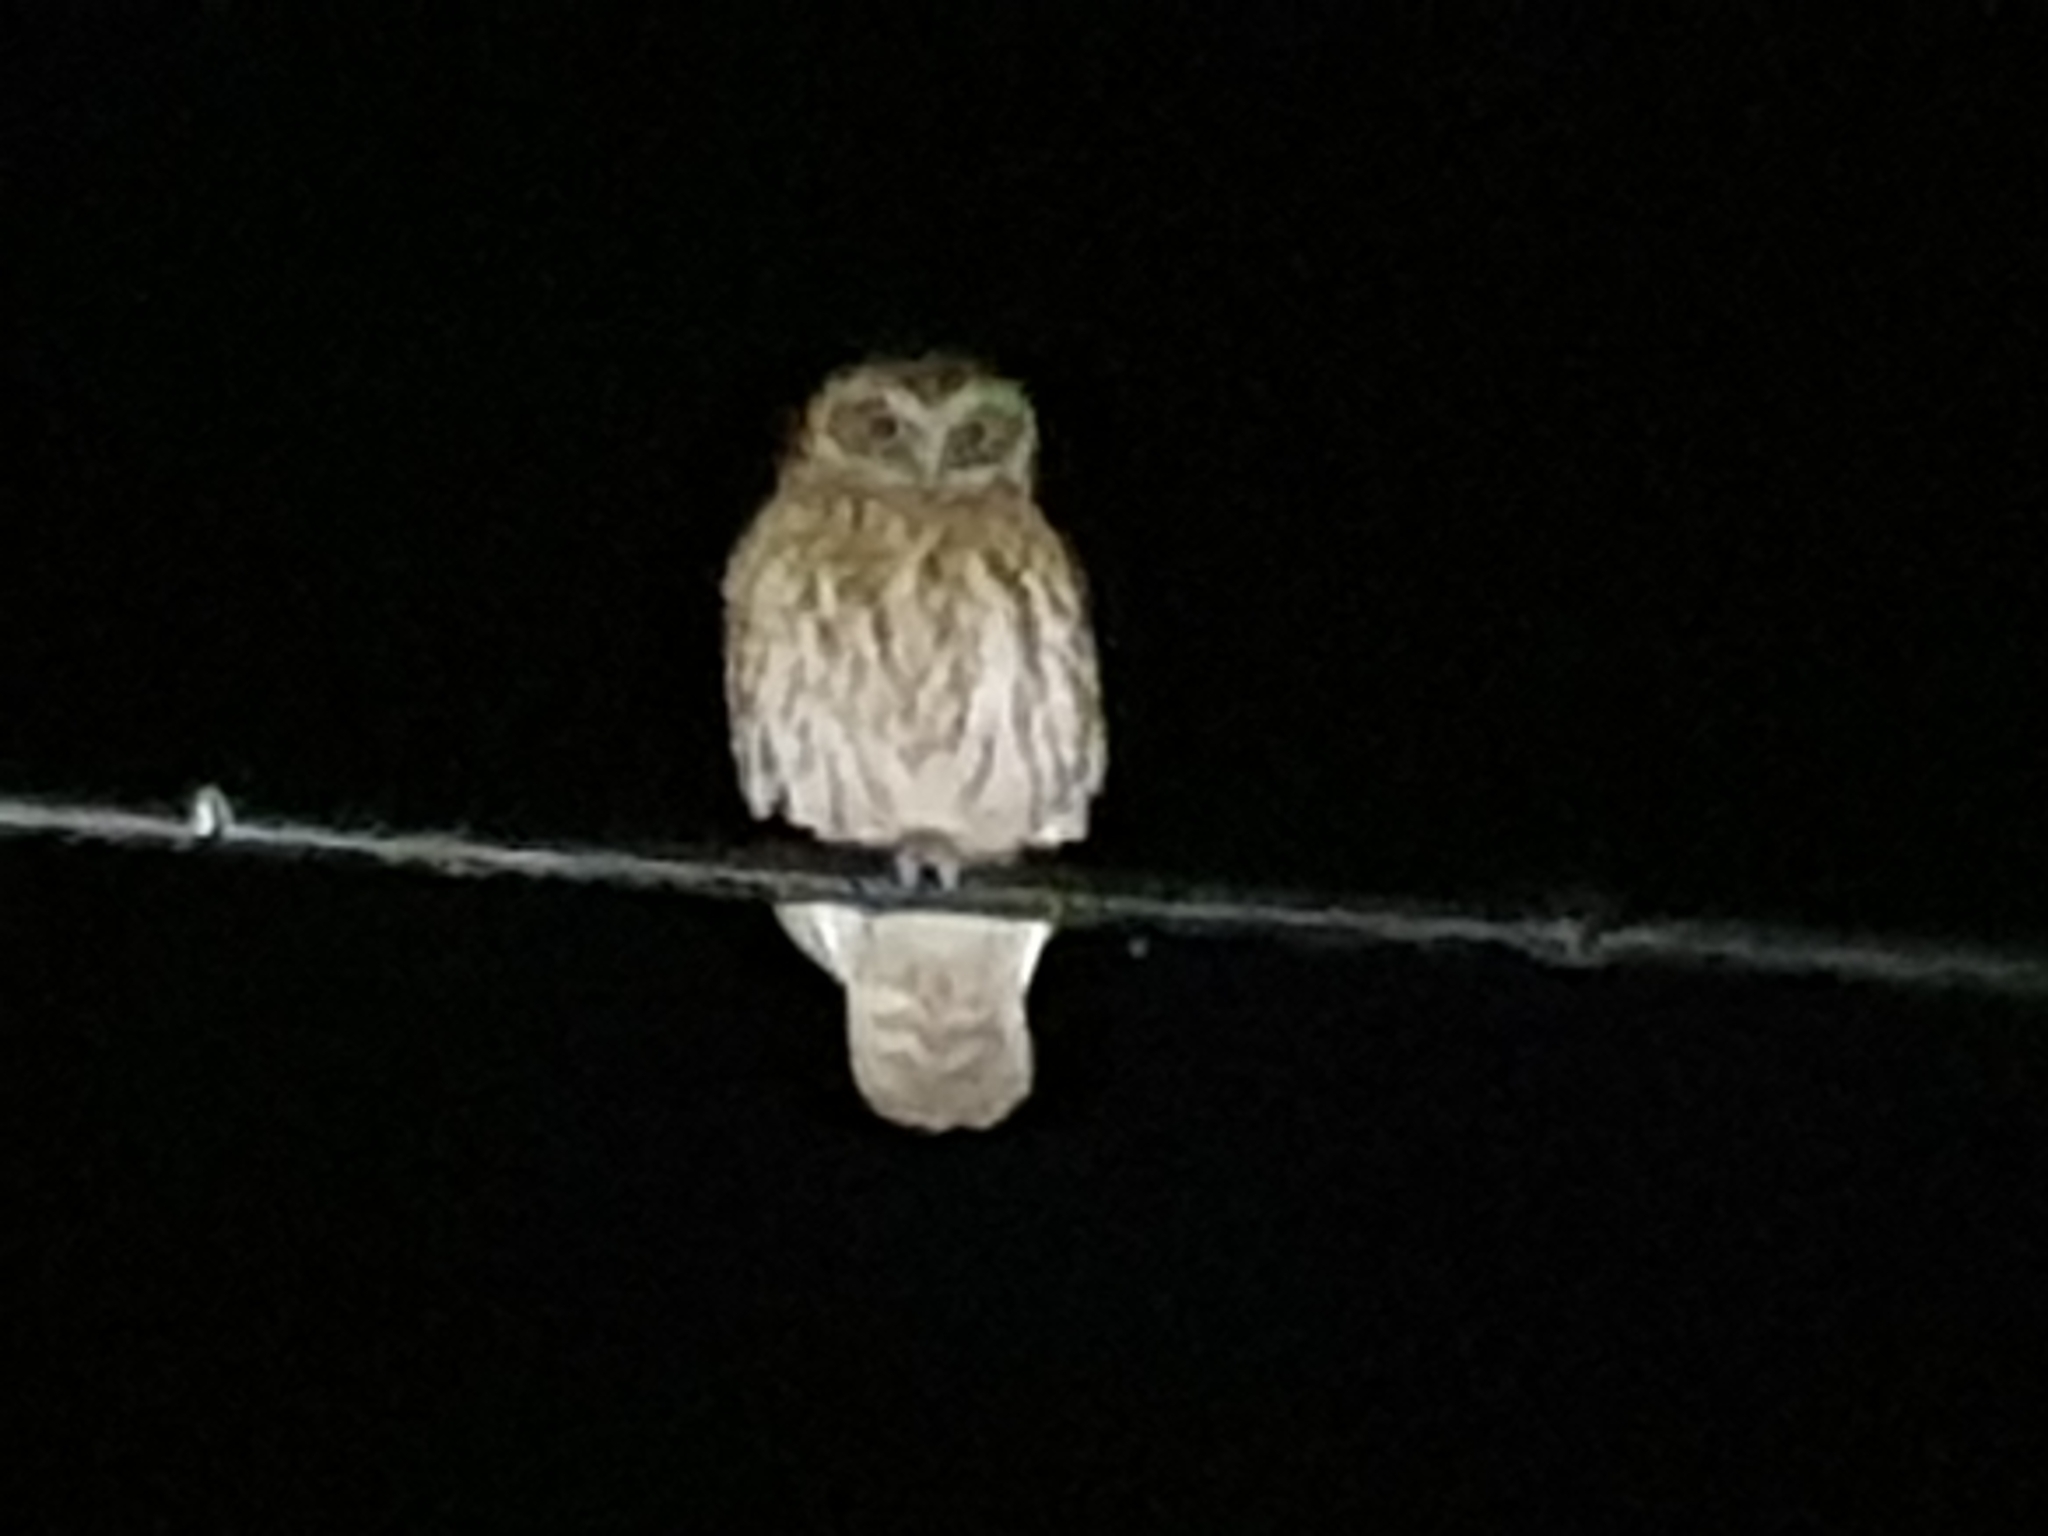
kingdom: Animalia
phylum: Chordata
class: Aves
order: Strigiformes
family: Strigidae
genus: Ninox
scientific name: Ninox boobook
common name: Southern boobook
